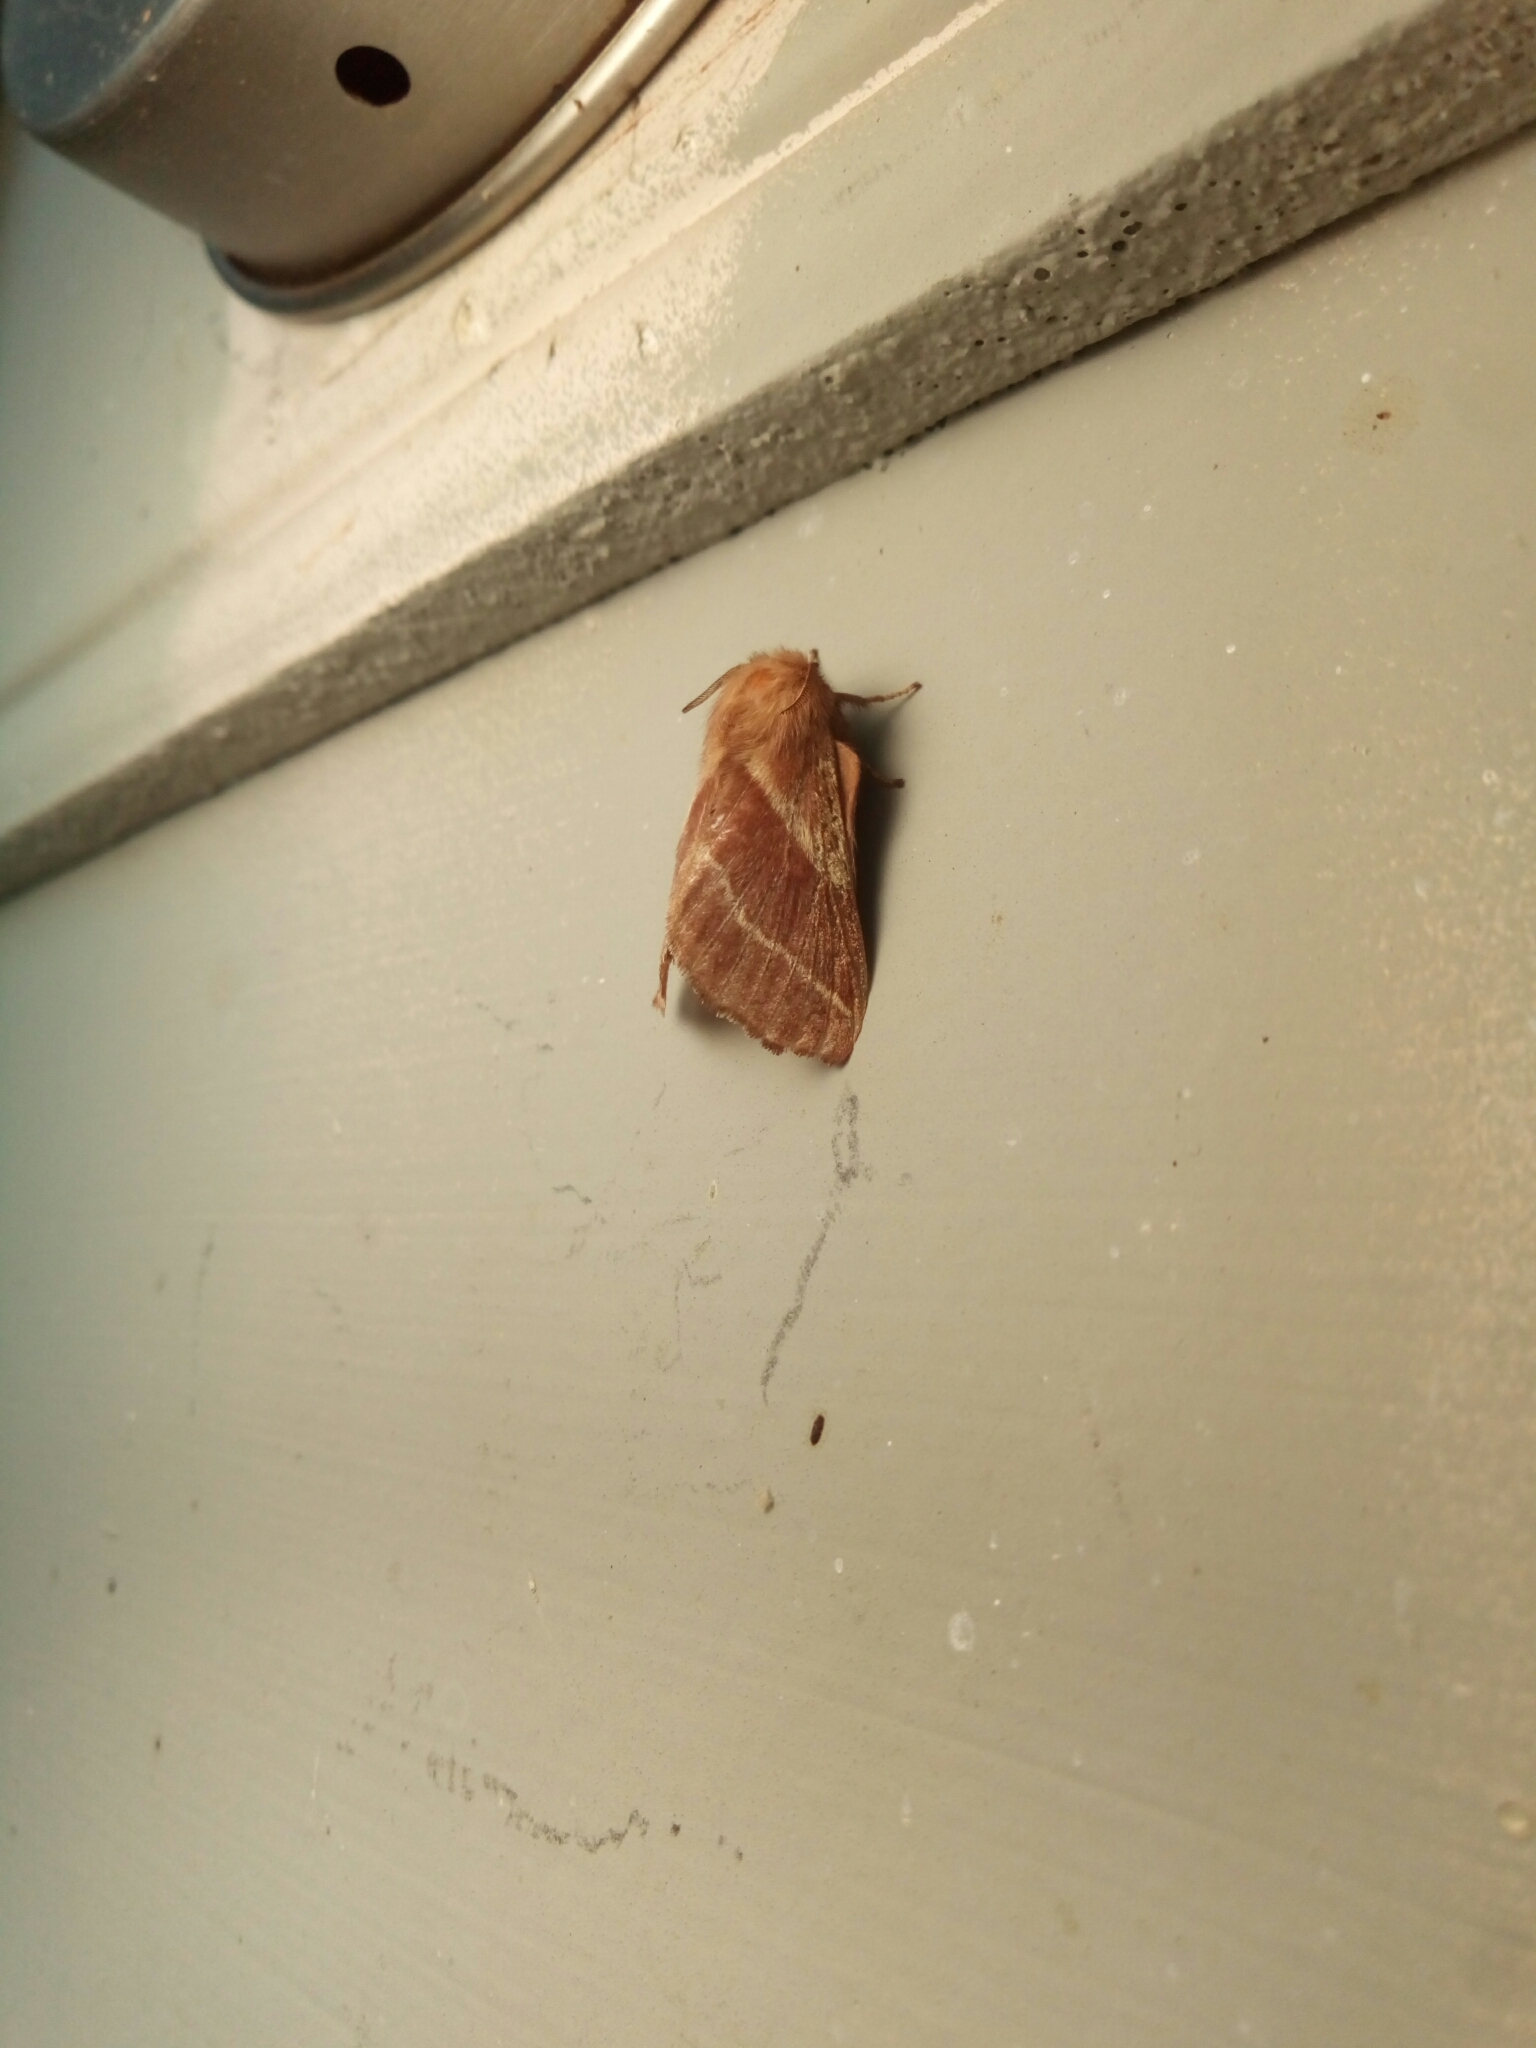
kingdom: Animalia
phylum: Arthropoda
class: Insecta
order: Lepidoptera
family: Lasiocampidae
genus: Malacosoma
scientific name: Malacosoma americana
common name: Eastern tent caterpillar moth
